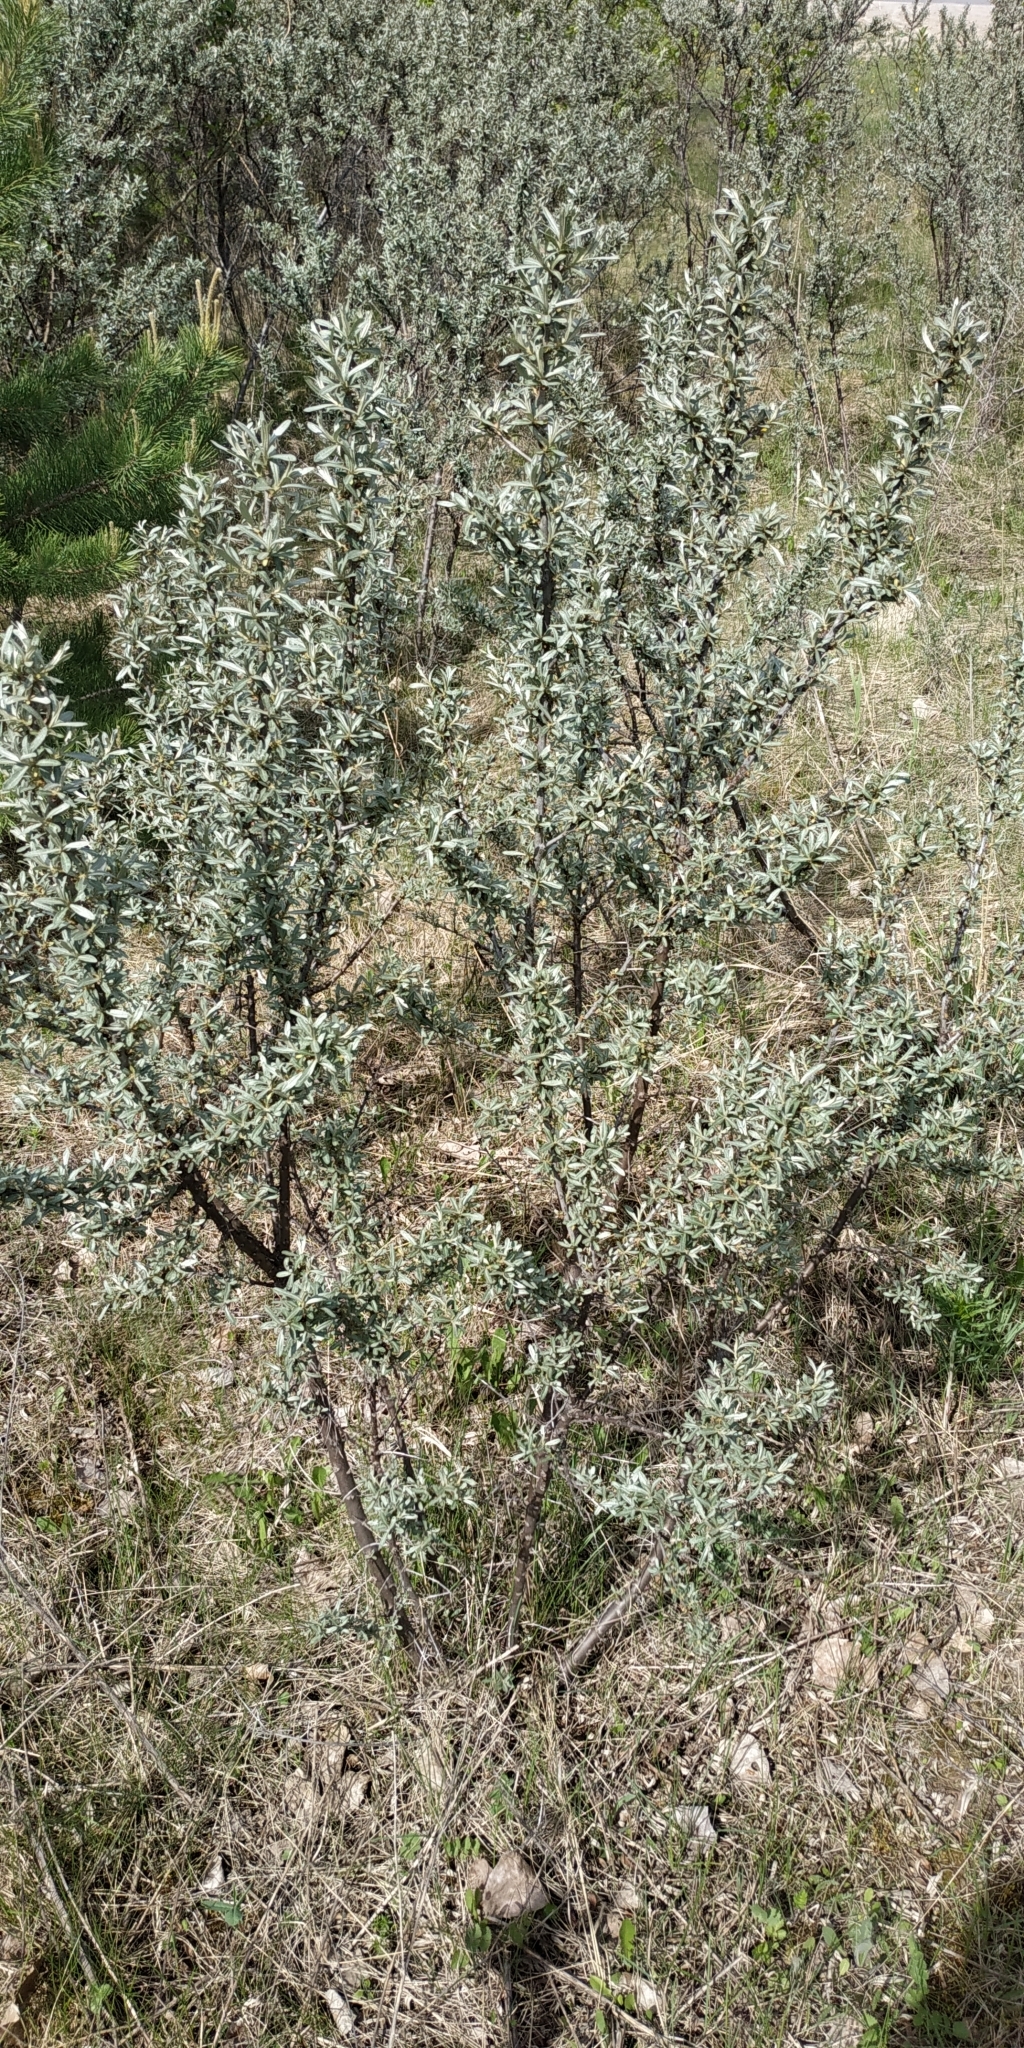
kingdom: Plantae
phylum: Tracheophyta
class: Magnoliopsida
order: Rosales
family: Elaeagnaceae
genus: Hippophae
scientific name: Hippophae rhamnoides
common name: Sea-buckthorn
